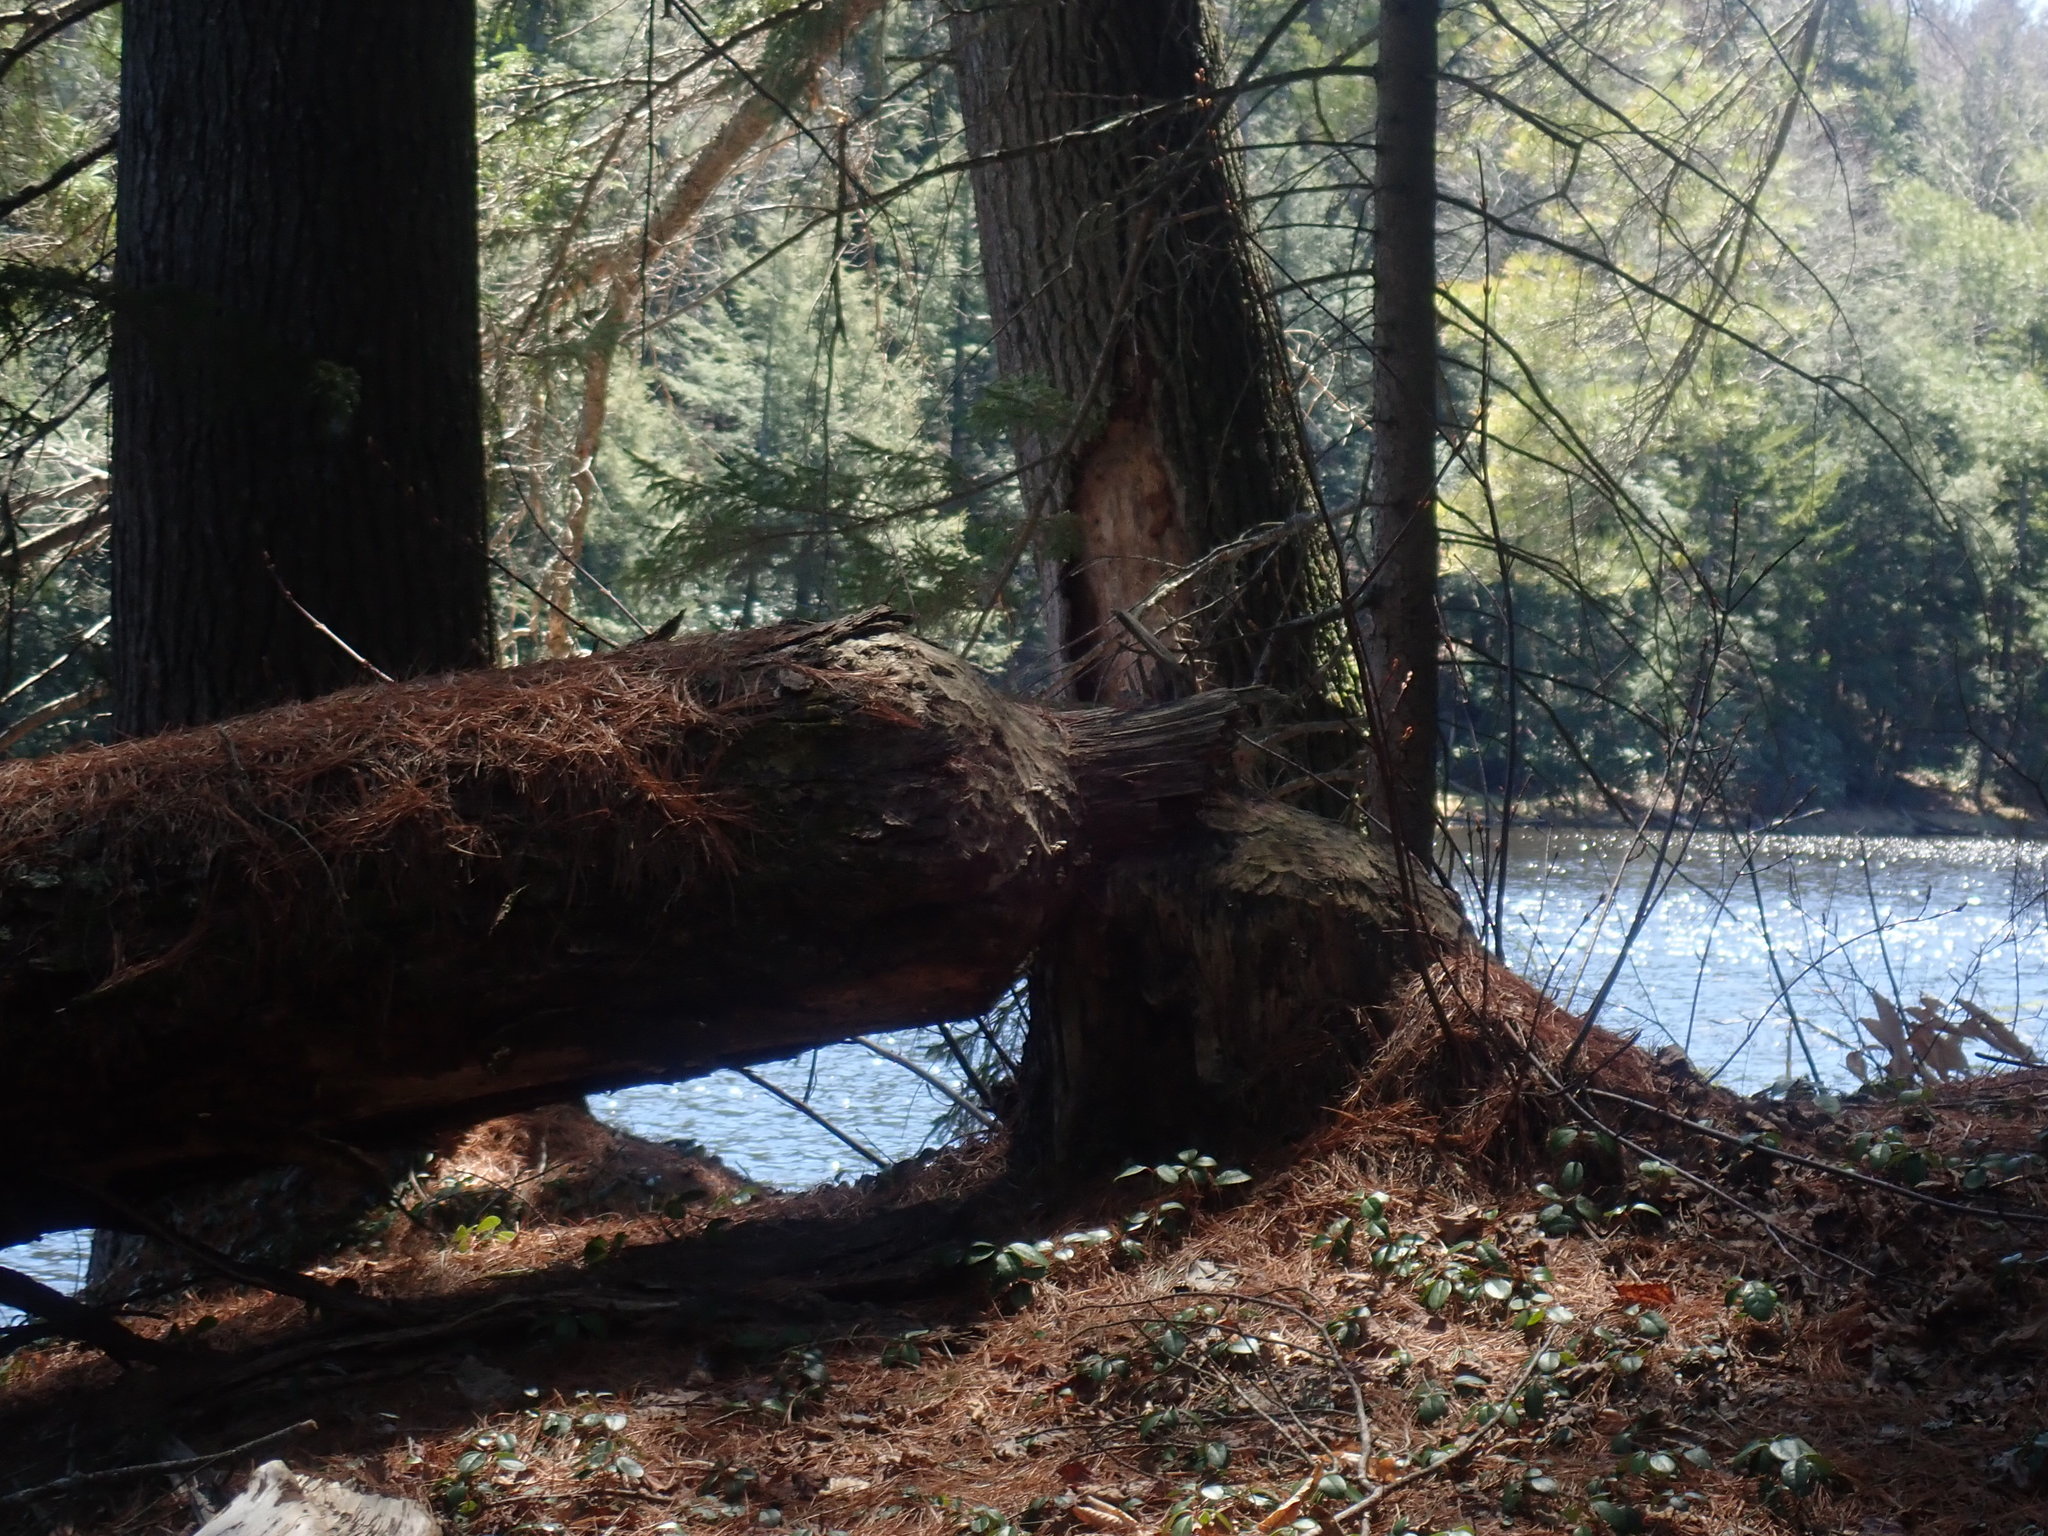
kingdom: Animalia
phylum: Chordata
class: Mammalia
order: Rodentia
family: Castoridae
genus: Castor
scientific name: Castor canadensis
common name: American beaver
